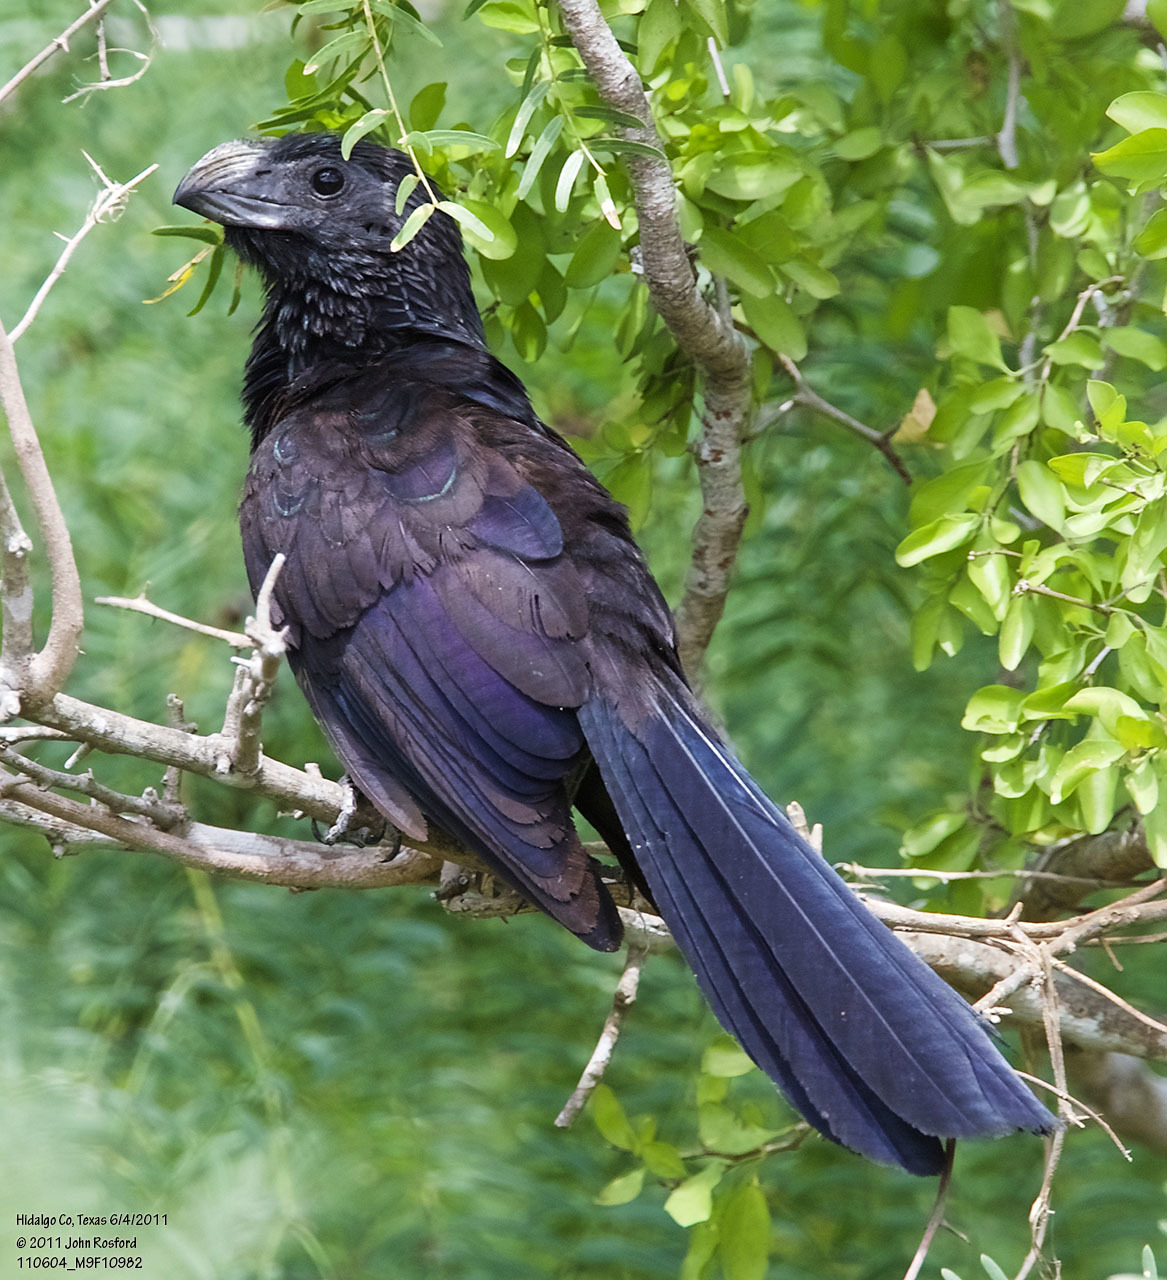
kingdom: Animalia
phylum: Chordata
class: Aves
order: Cuculiformes
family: Cuculidae
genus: Crotophaga
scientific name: Crotophaga sulcirostris
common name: Groove-billed ani
